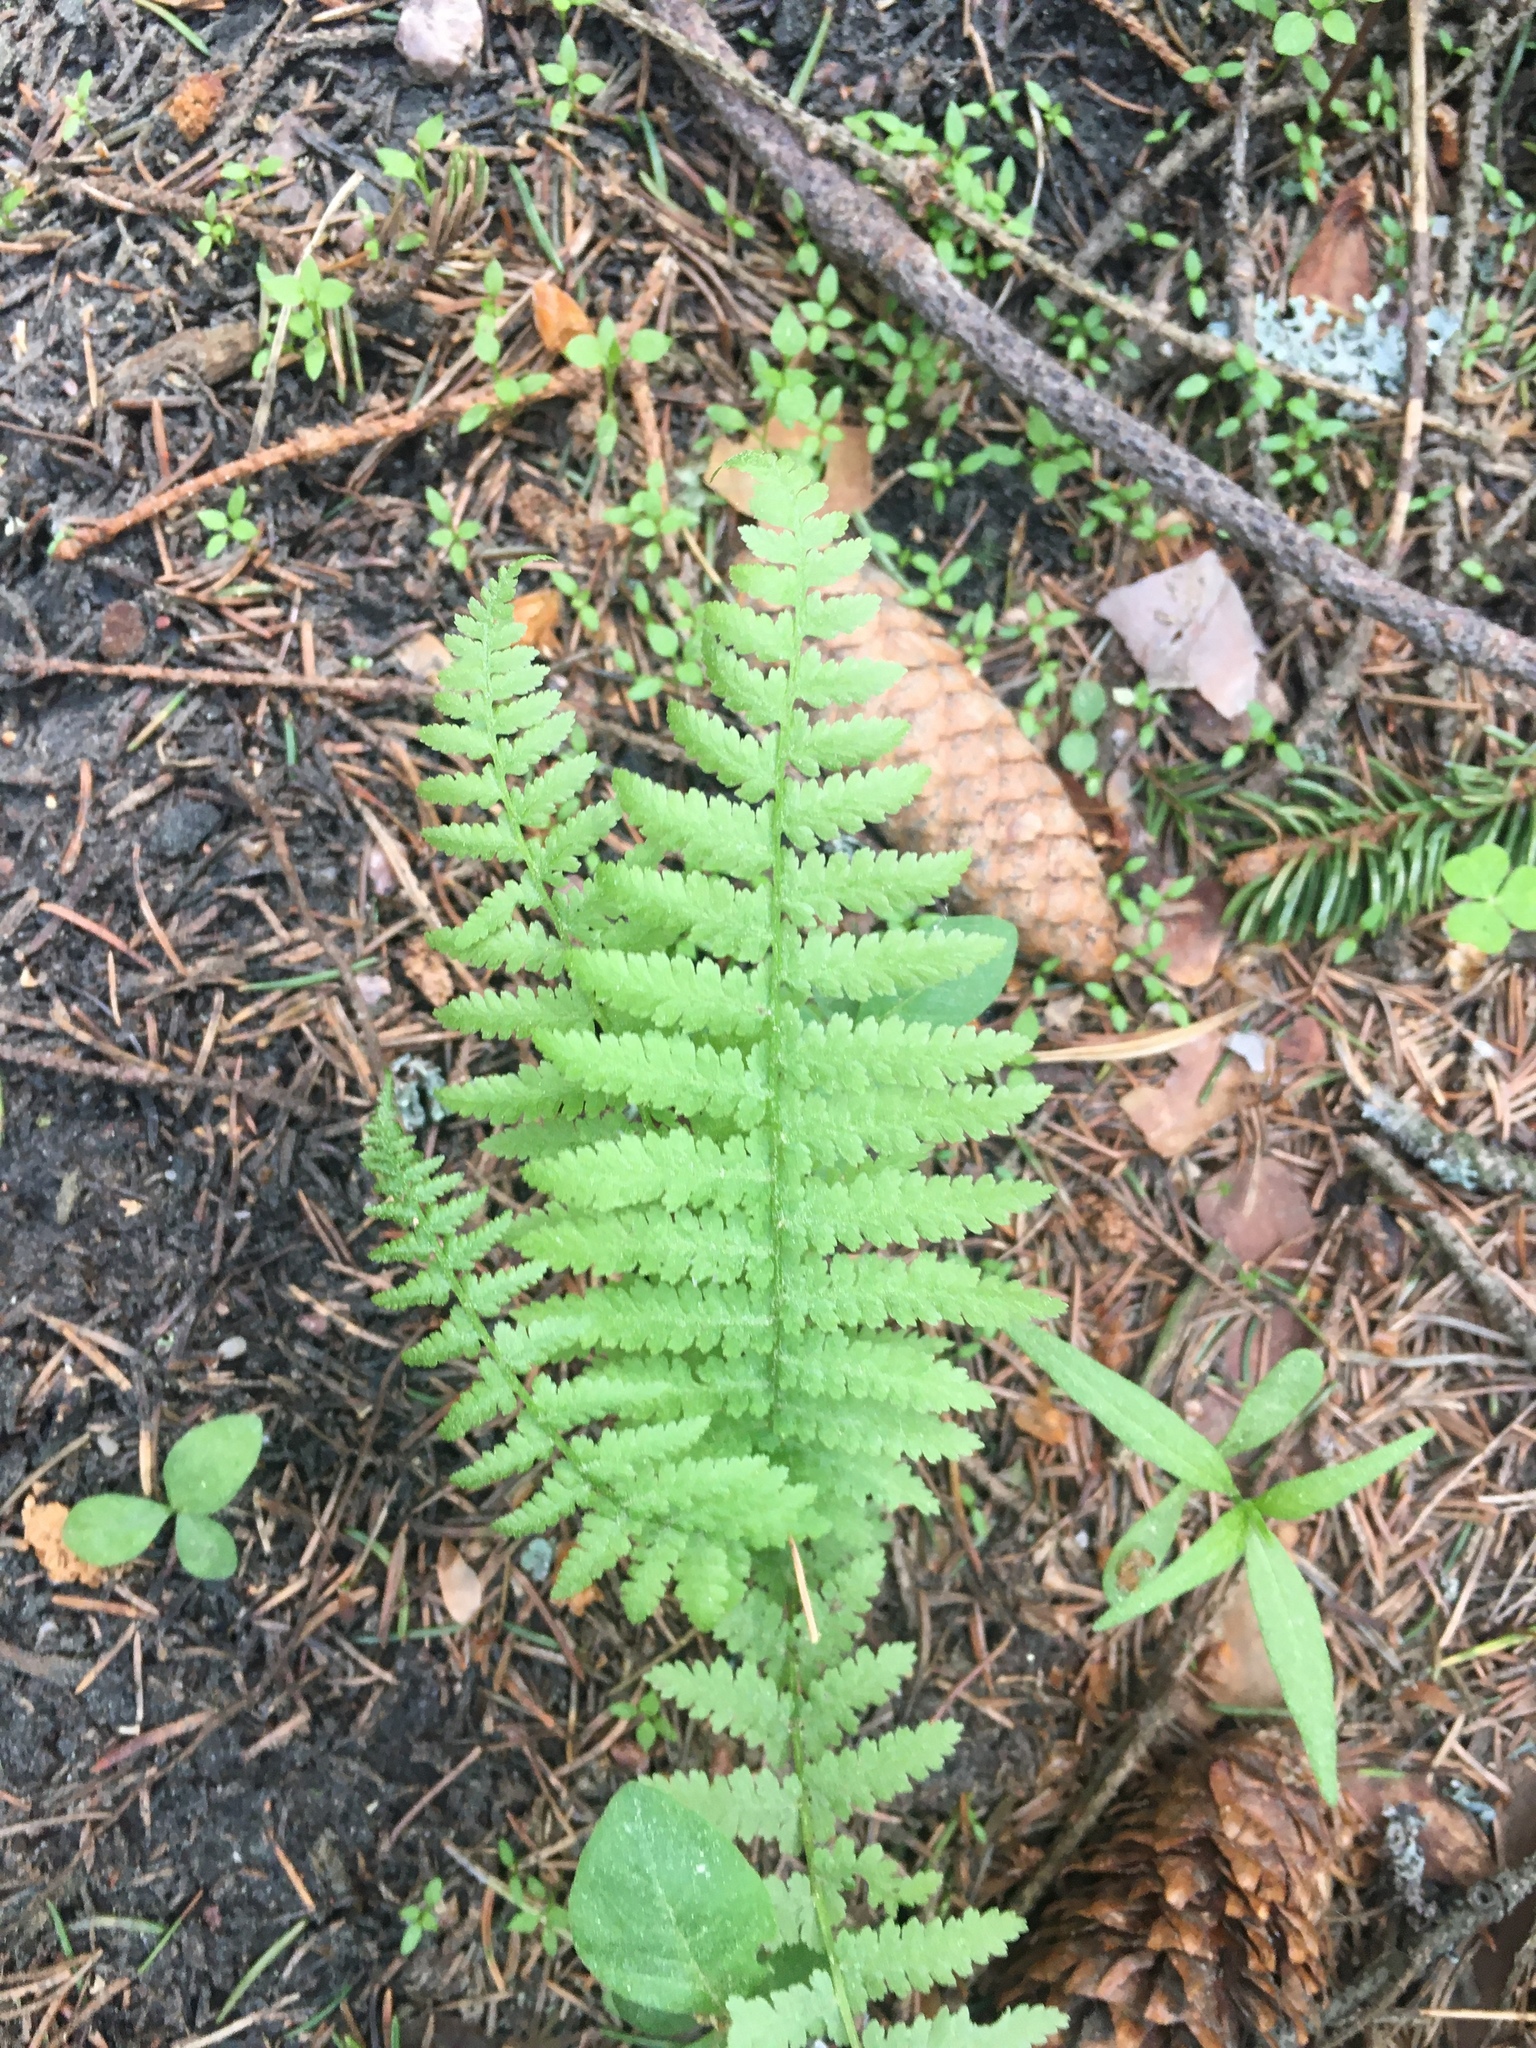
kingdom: Plantae
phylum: Tracheophyta
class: Polypodiopsida
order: Polypodiales
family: Athyriaceae
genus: Athyrium
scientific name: Athyrium filix-femina
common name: Lady fern
